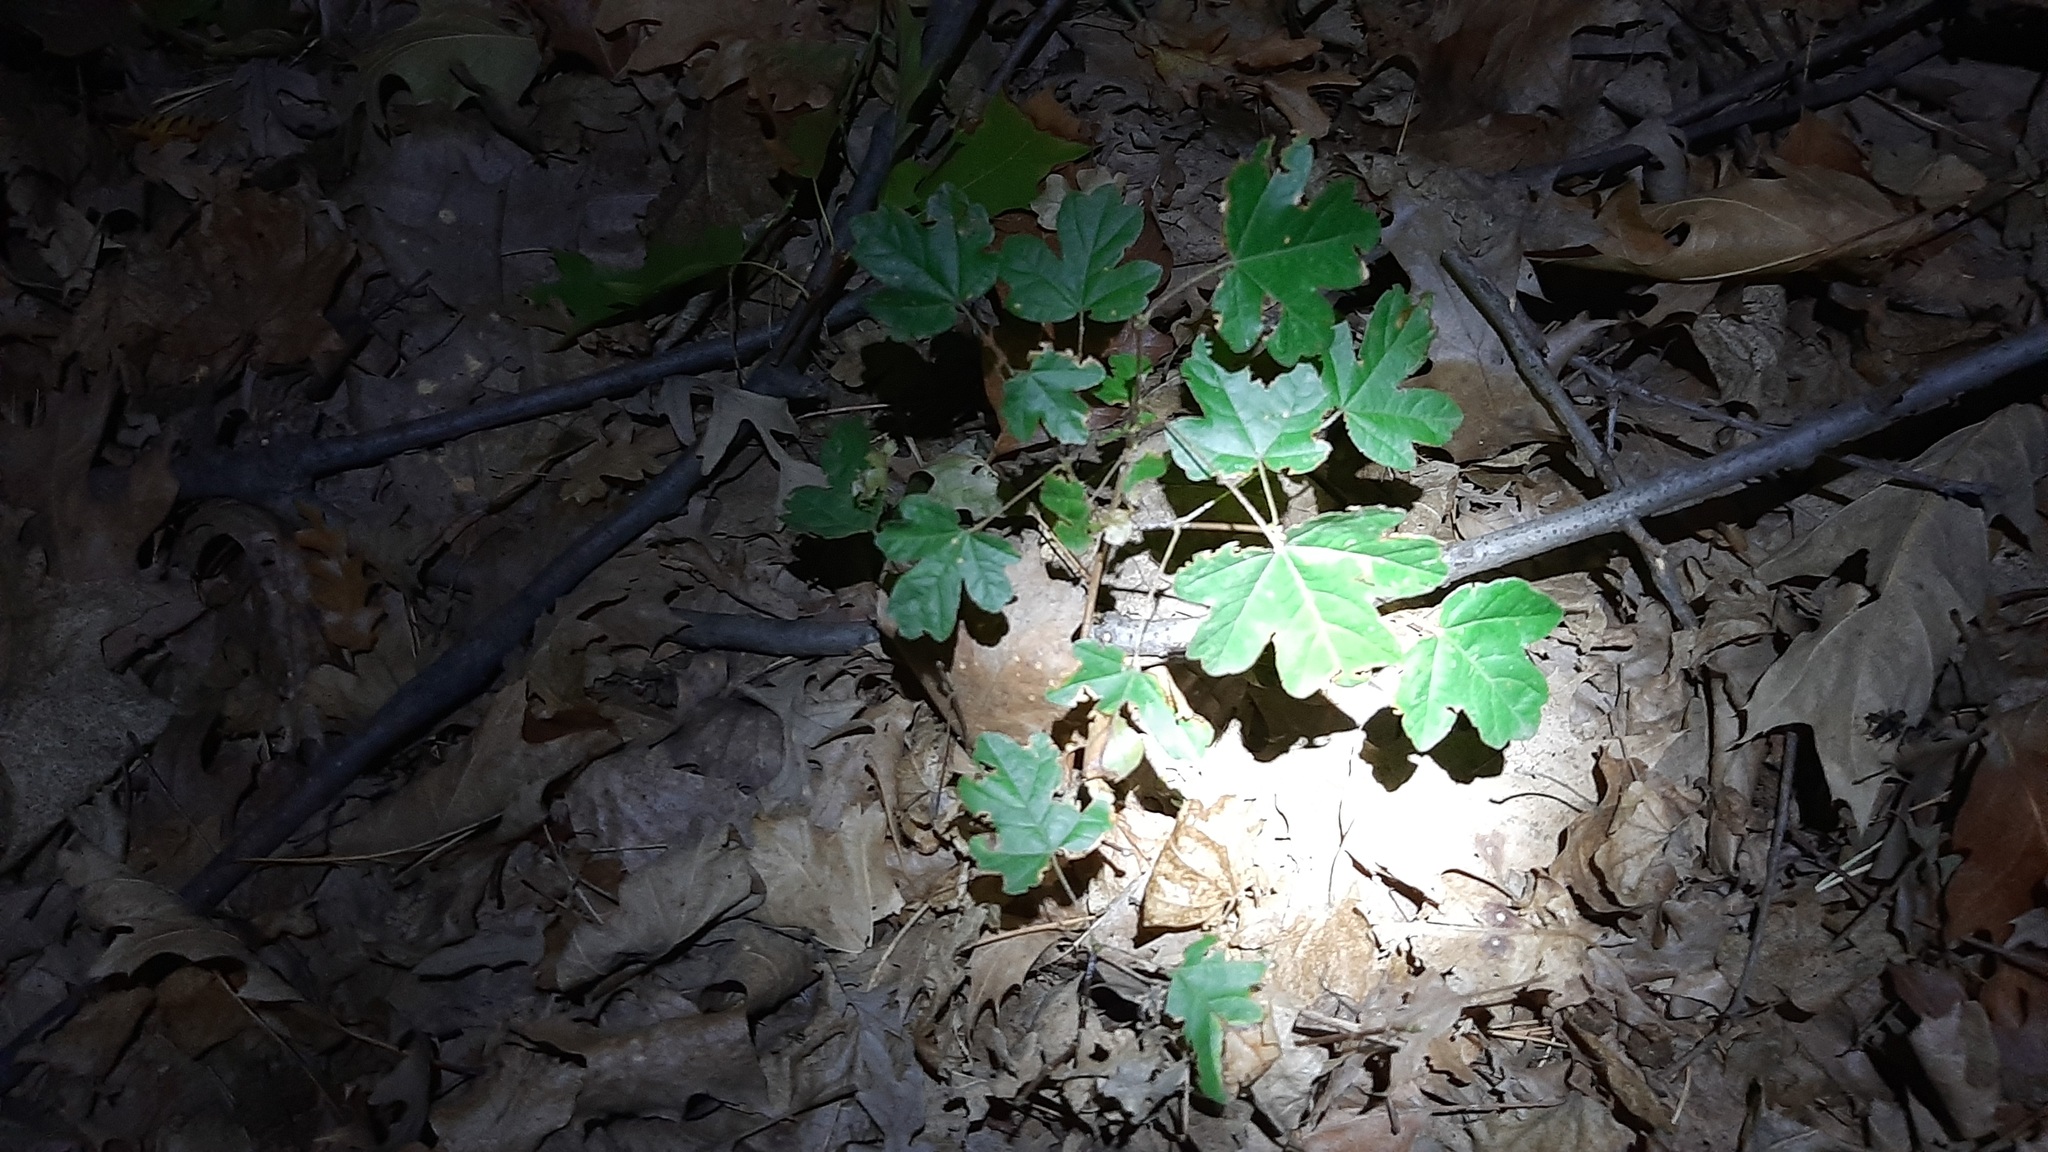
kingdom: Plantae
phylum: Tracheophyta
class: Magnoliopsida
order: Sapindales
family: Sapindaceae
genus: Acer
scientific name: Acer campestre
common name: Field maple
